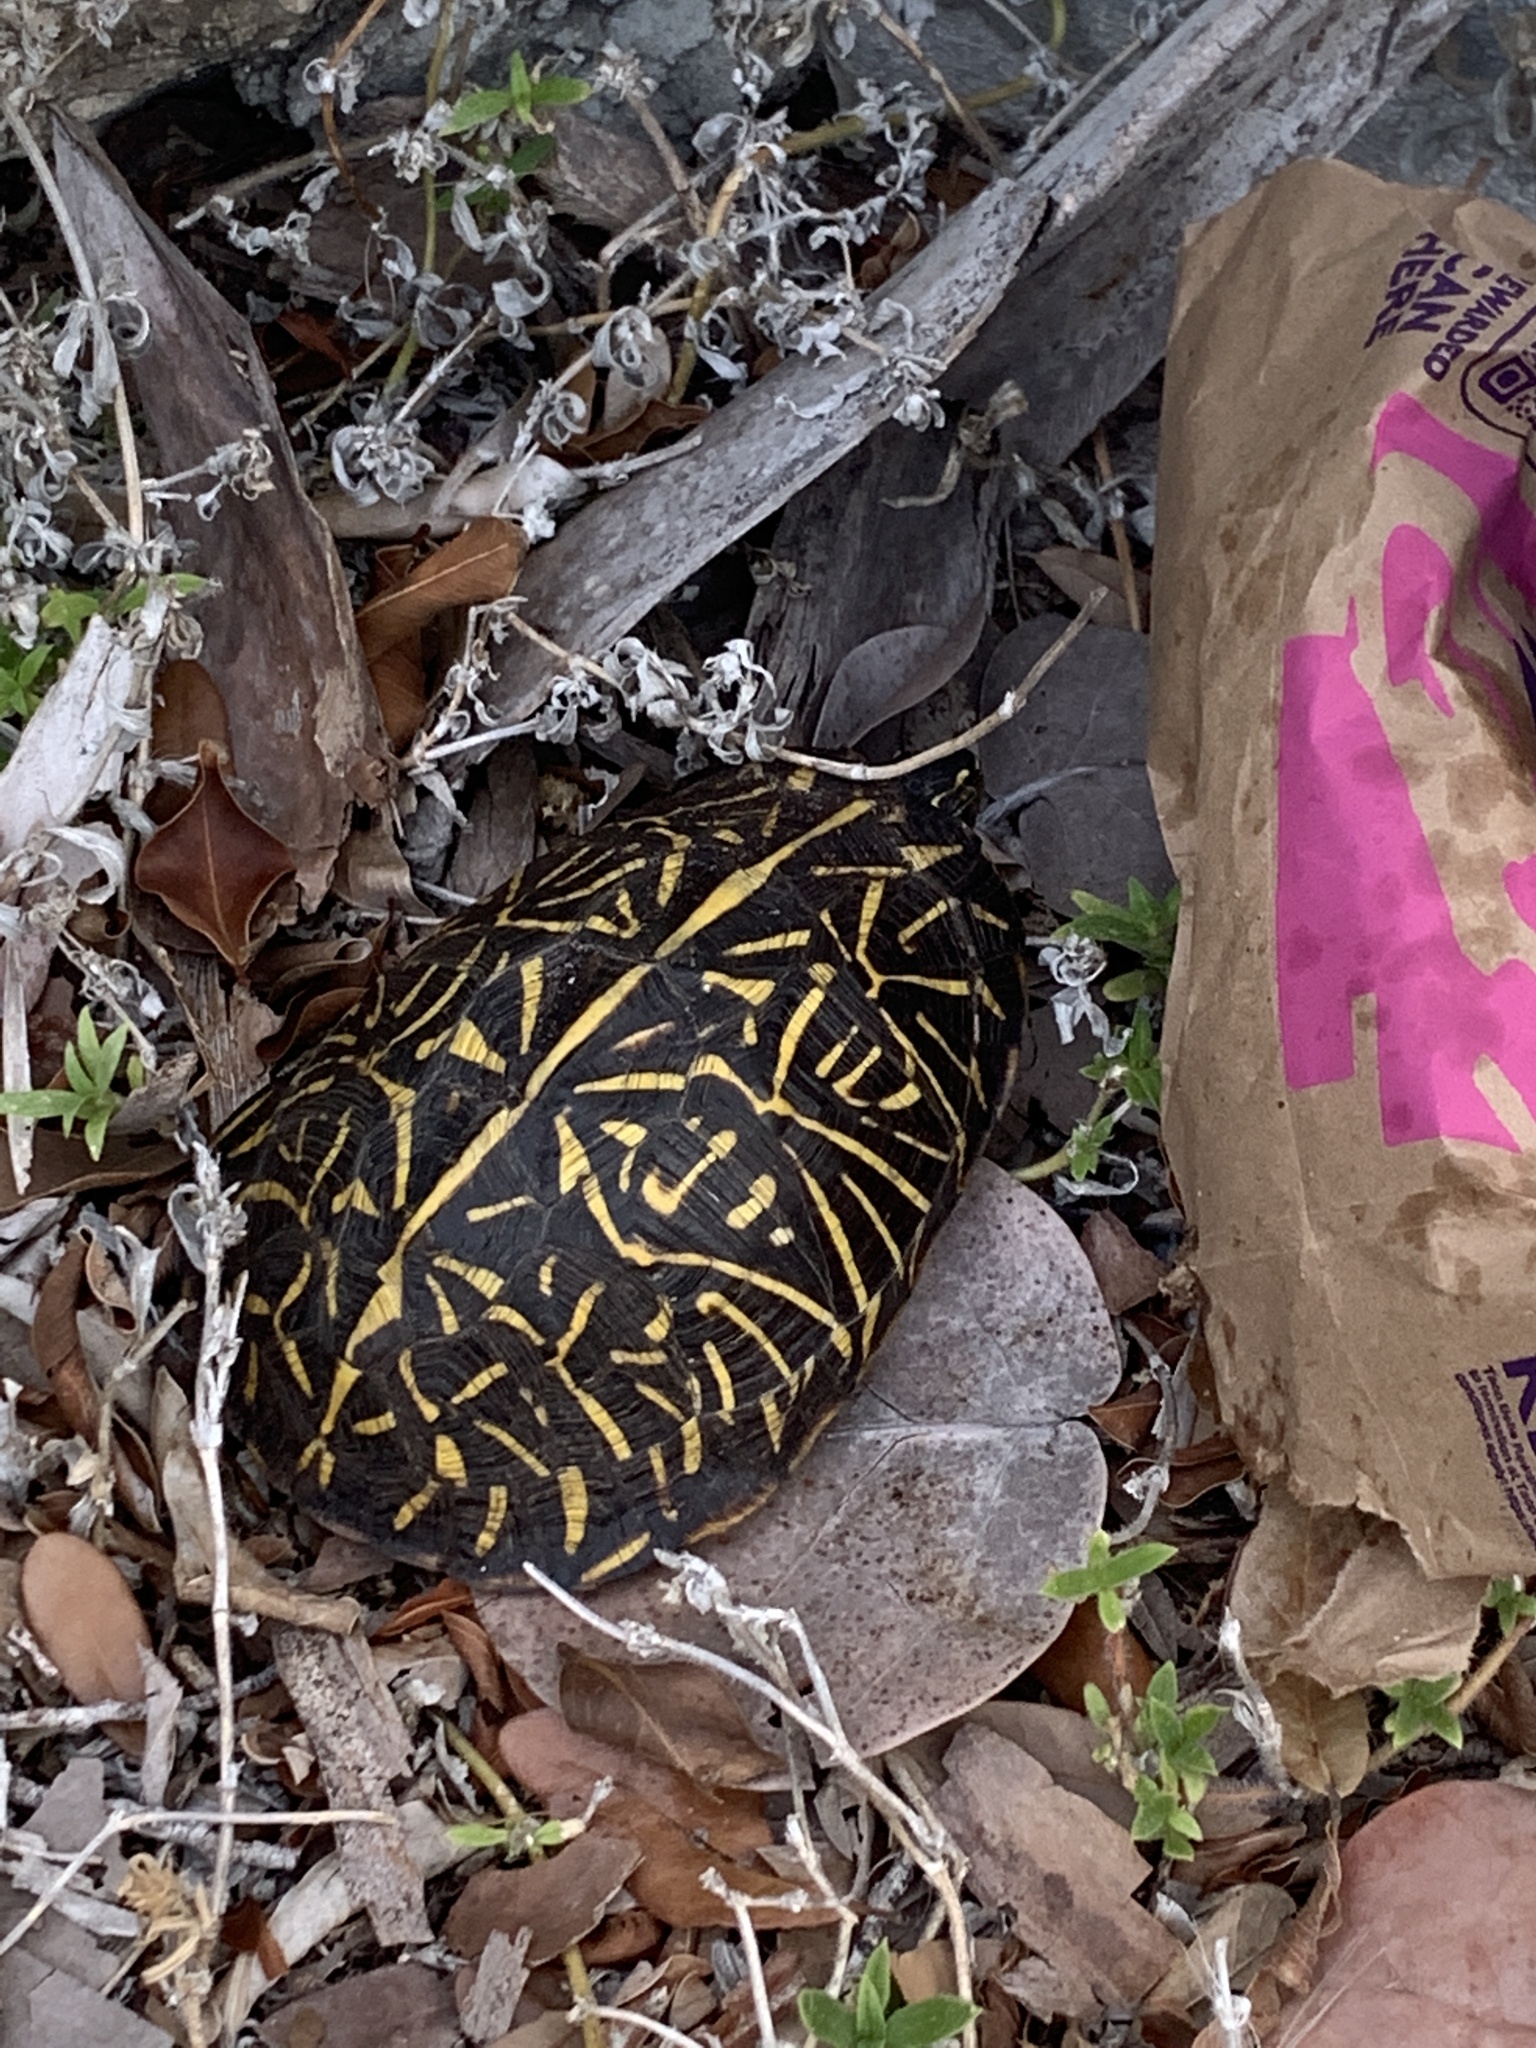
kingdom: Animalia
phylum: Chordata
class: Testudines
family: Emydidae
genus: Terrapene
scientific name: Terrapene carolina
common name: Common box turtle
